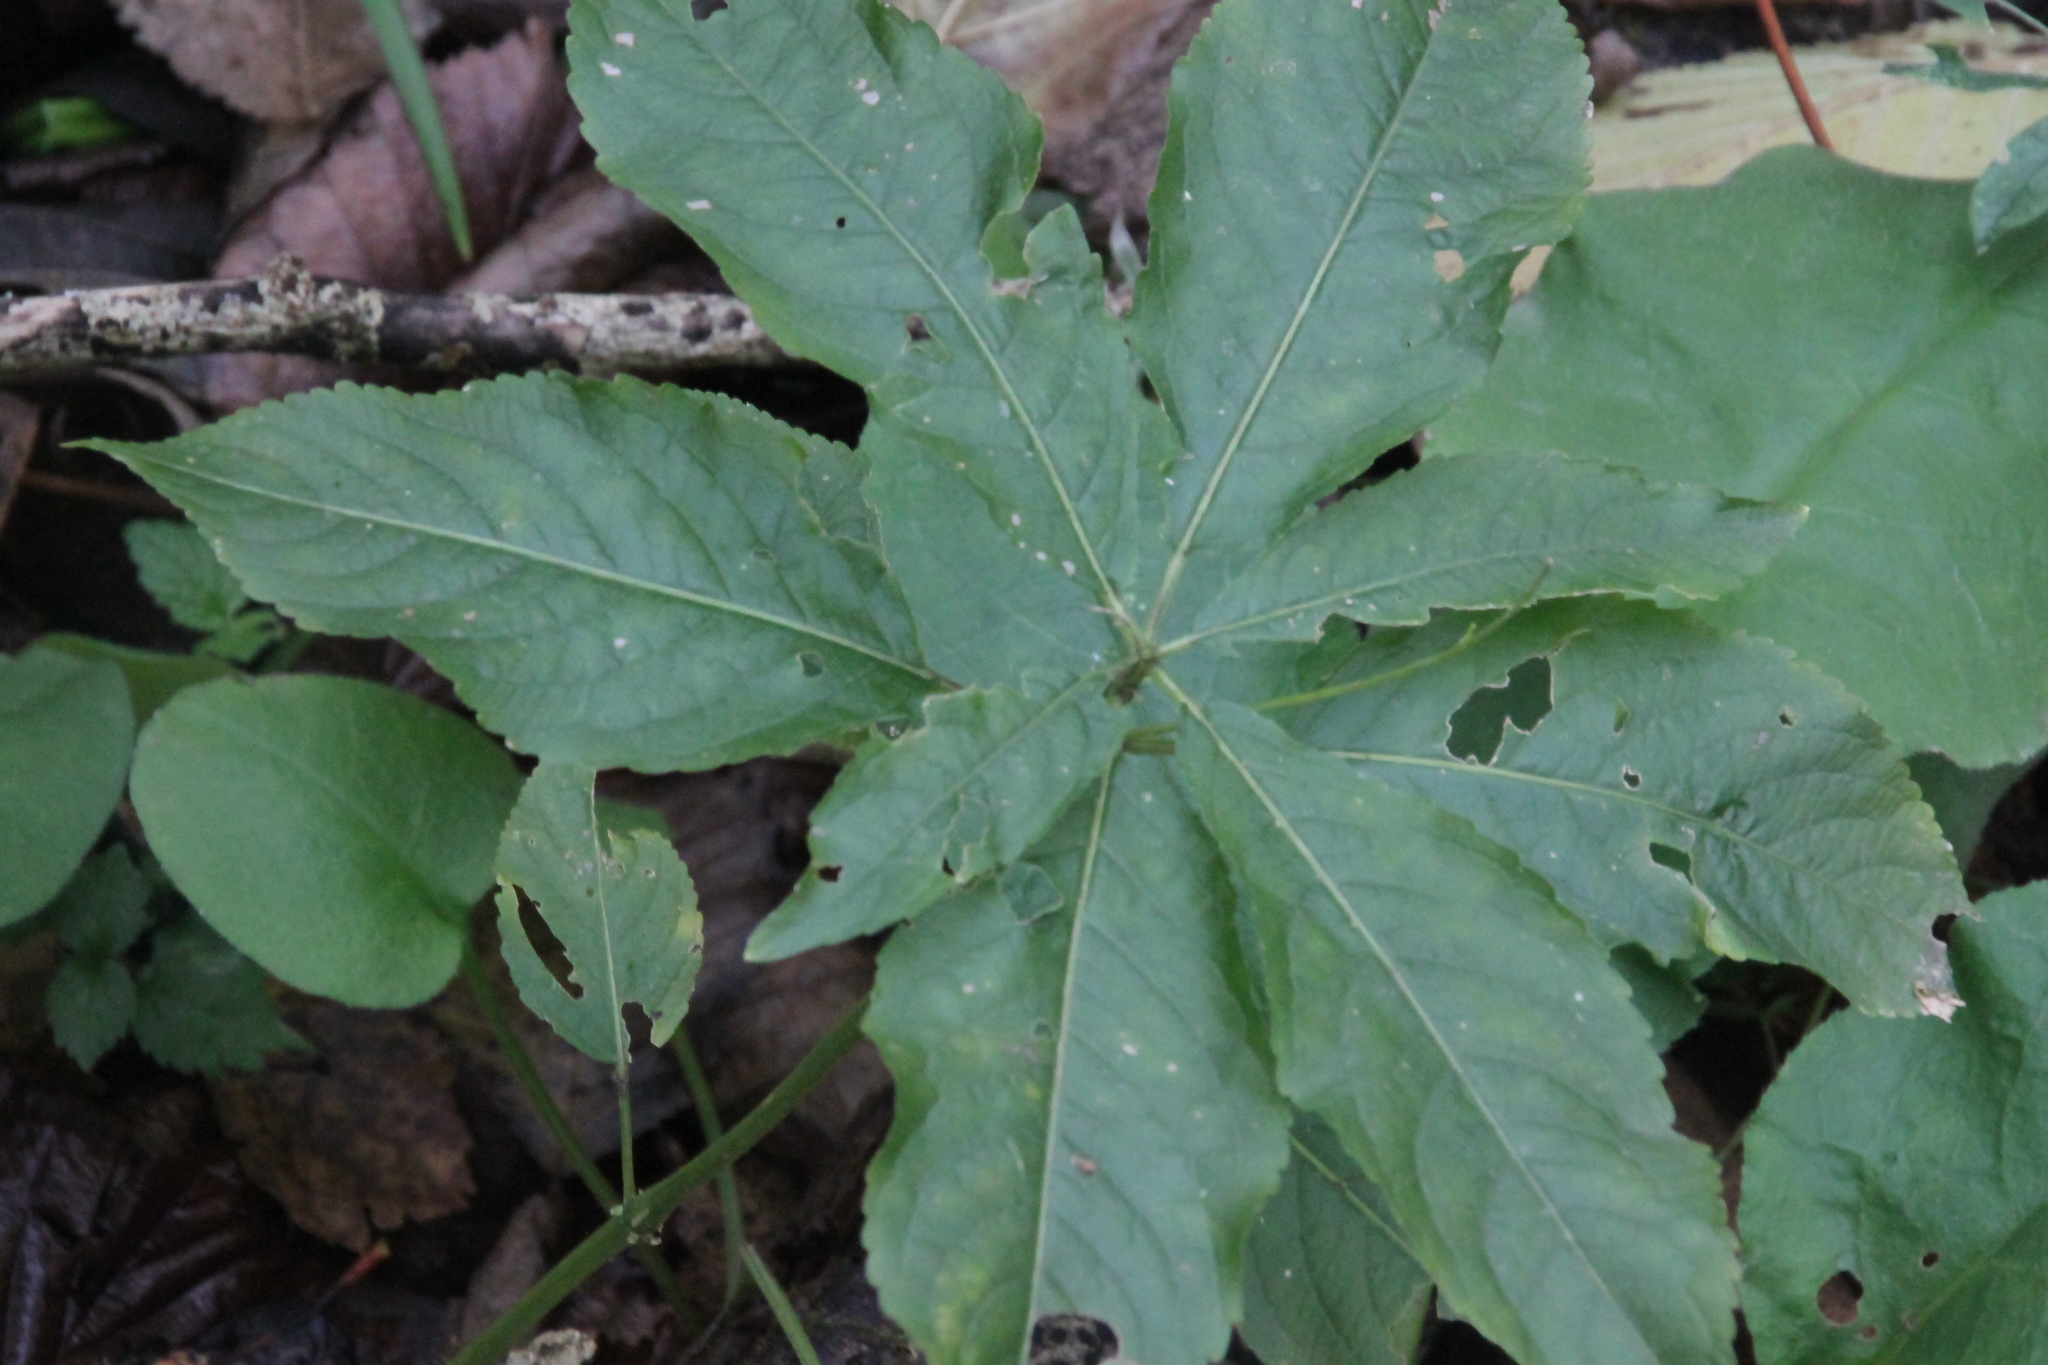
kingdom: Plantae
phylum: Tracheophyta
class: Magnoliopsida
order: Malpighiales
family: Euphorbiaceae
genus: Mercurialis
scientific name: Mercurialis perennis
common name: Dog mercury
